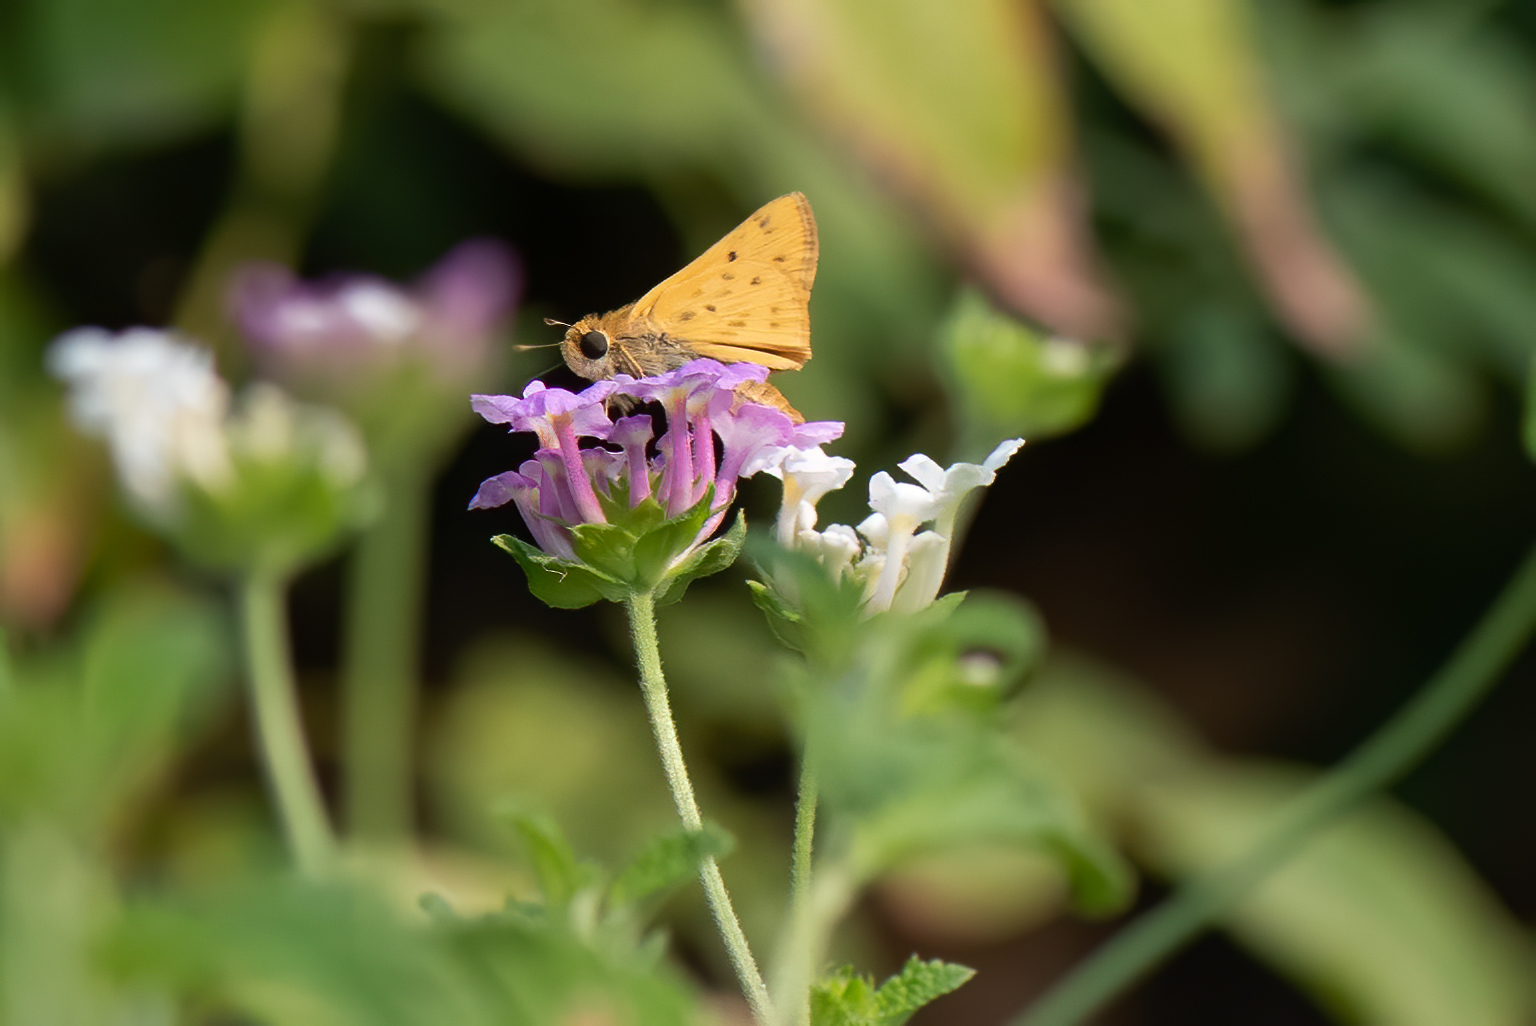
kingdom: Animalia
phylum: Arthropoda
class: Insecta
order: Lepidoptera
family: Hesperiidae
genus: Hylephila
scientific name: Hylephila phyleus
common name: Fiery skipper
